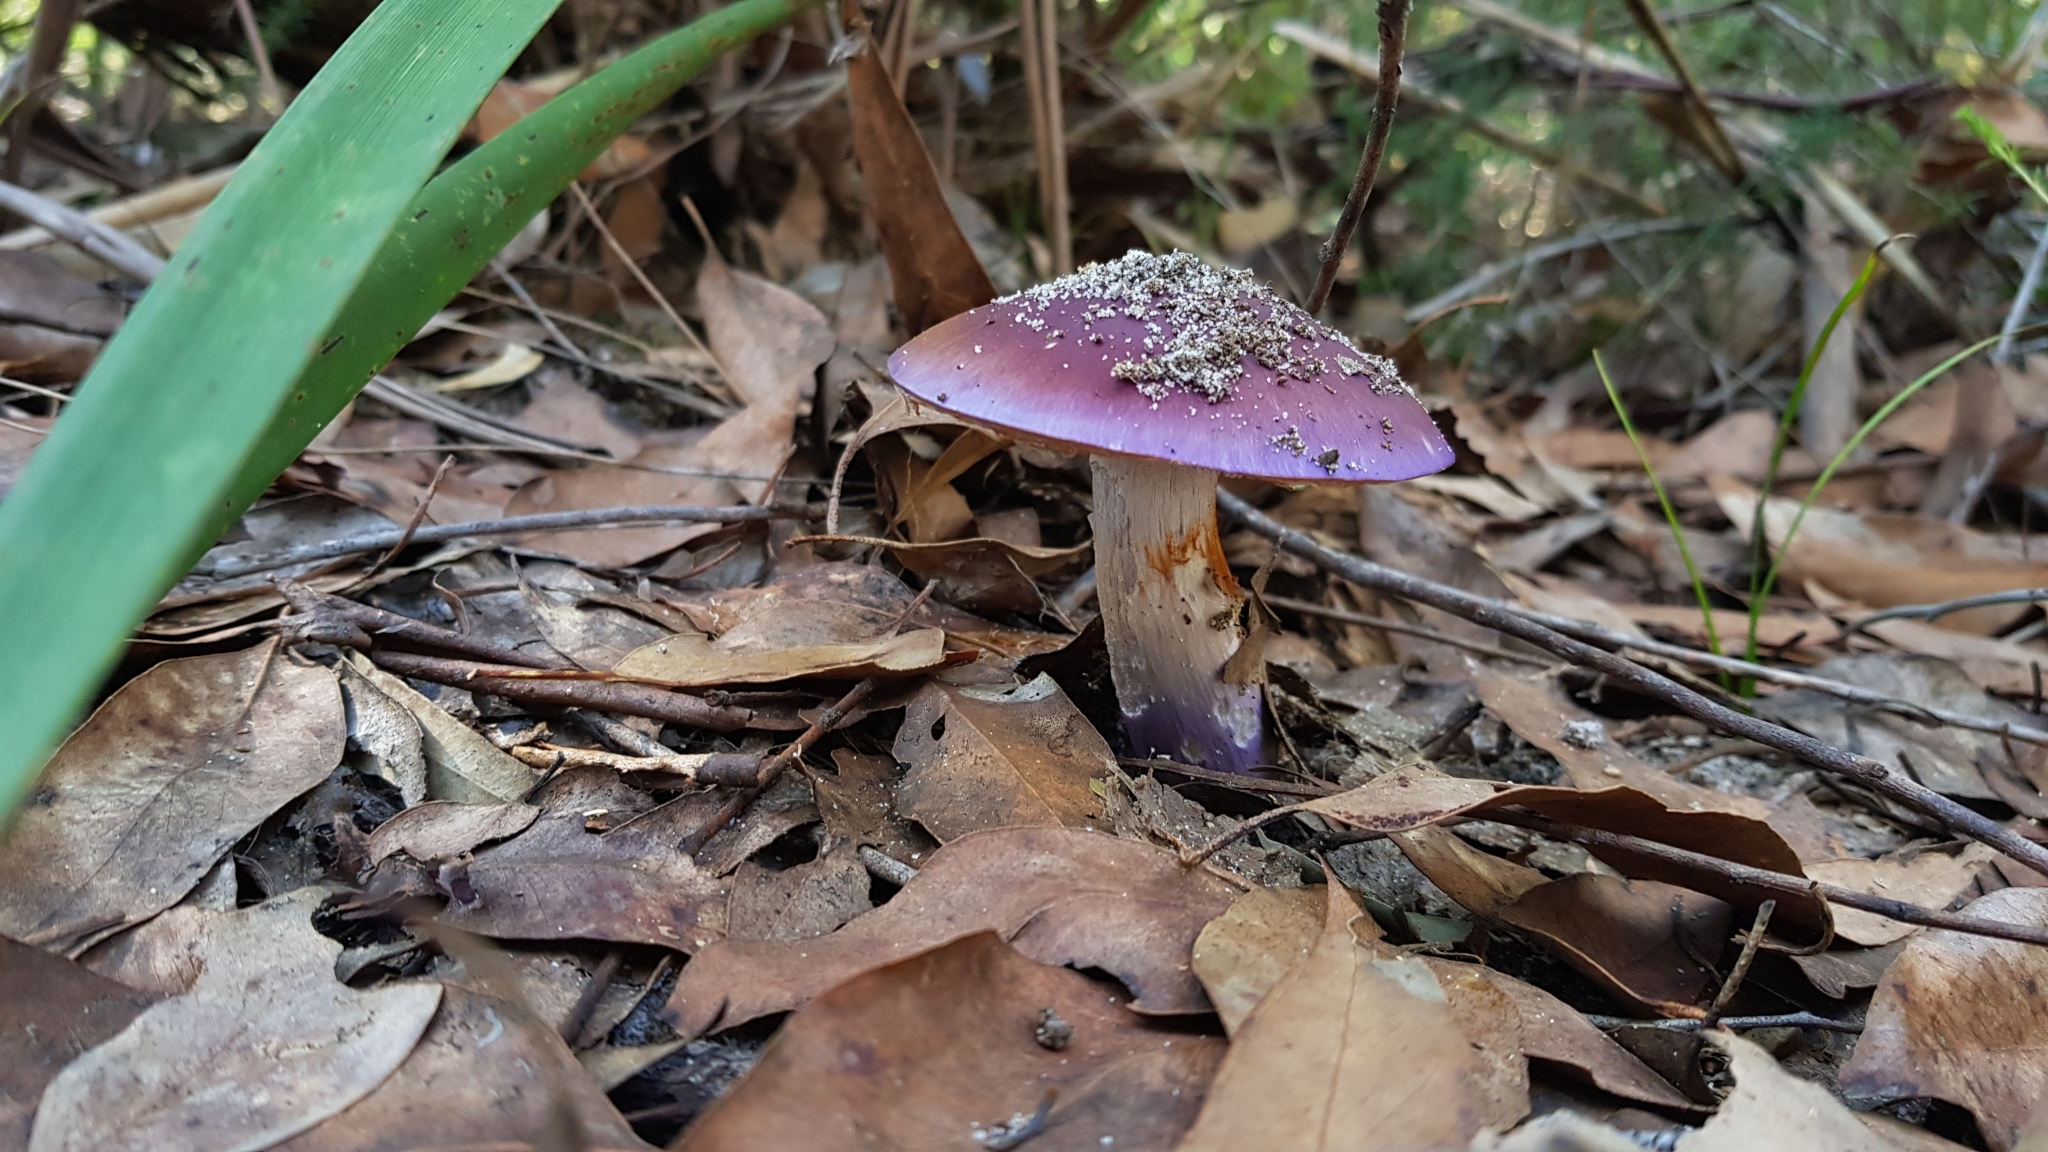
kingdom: Fungi
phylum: Basidiomycota
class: Agaricomycetes
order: Agaricales
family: Cortinariaceae
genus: Cortinarius
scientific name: Cortinarius archeri
